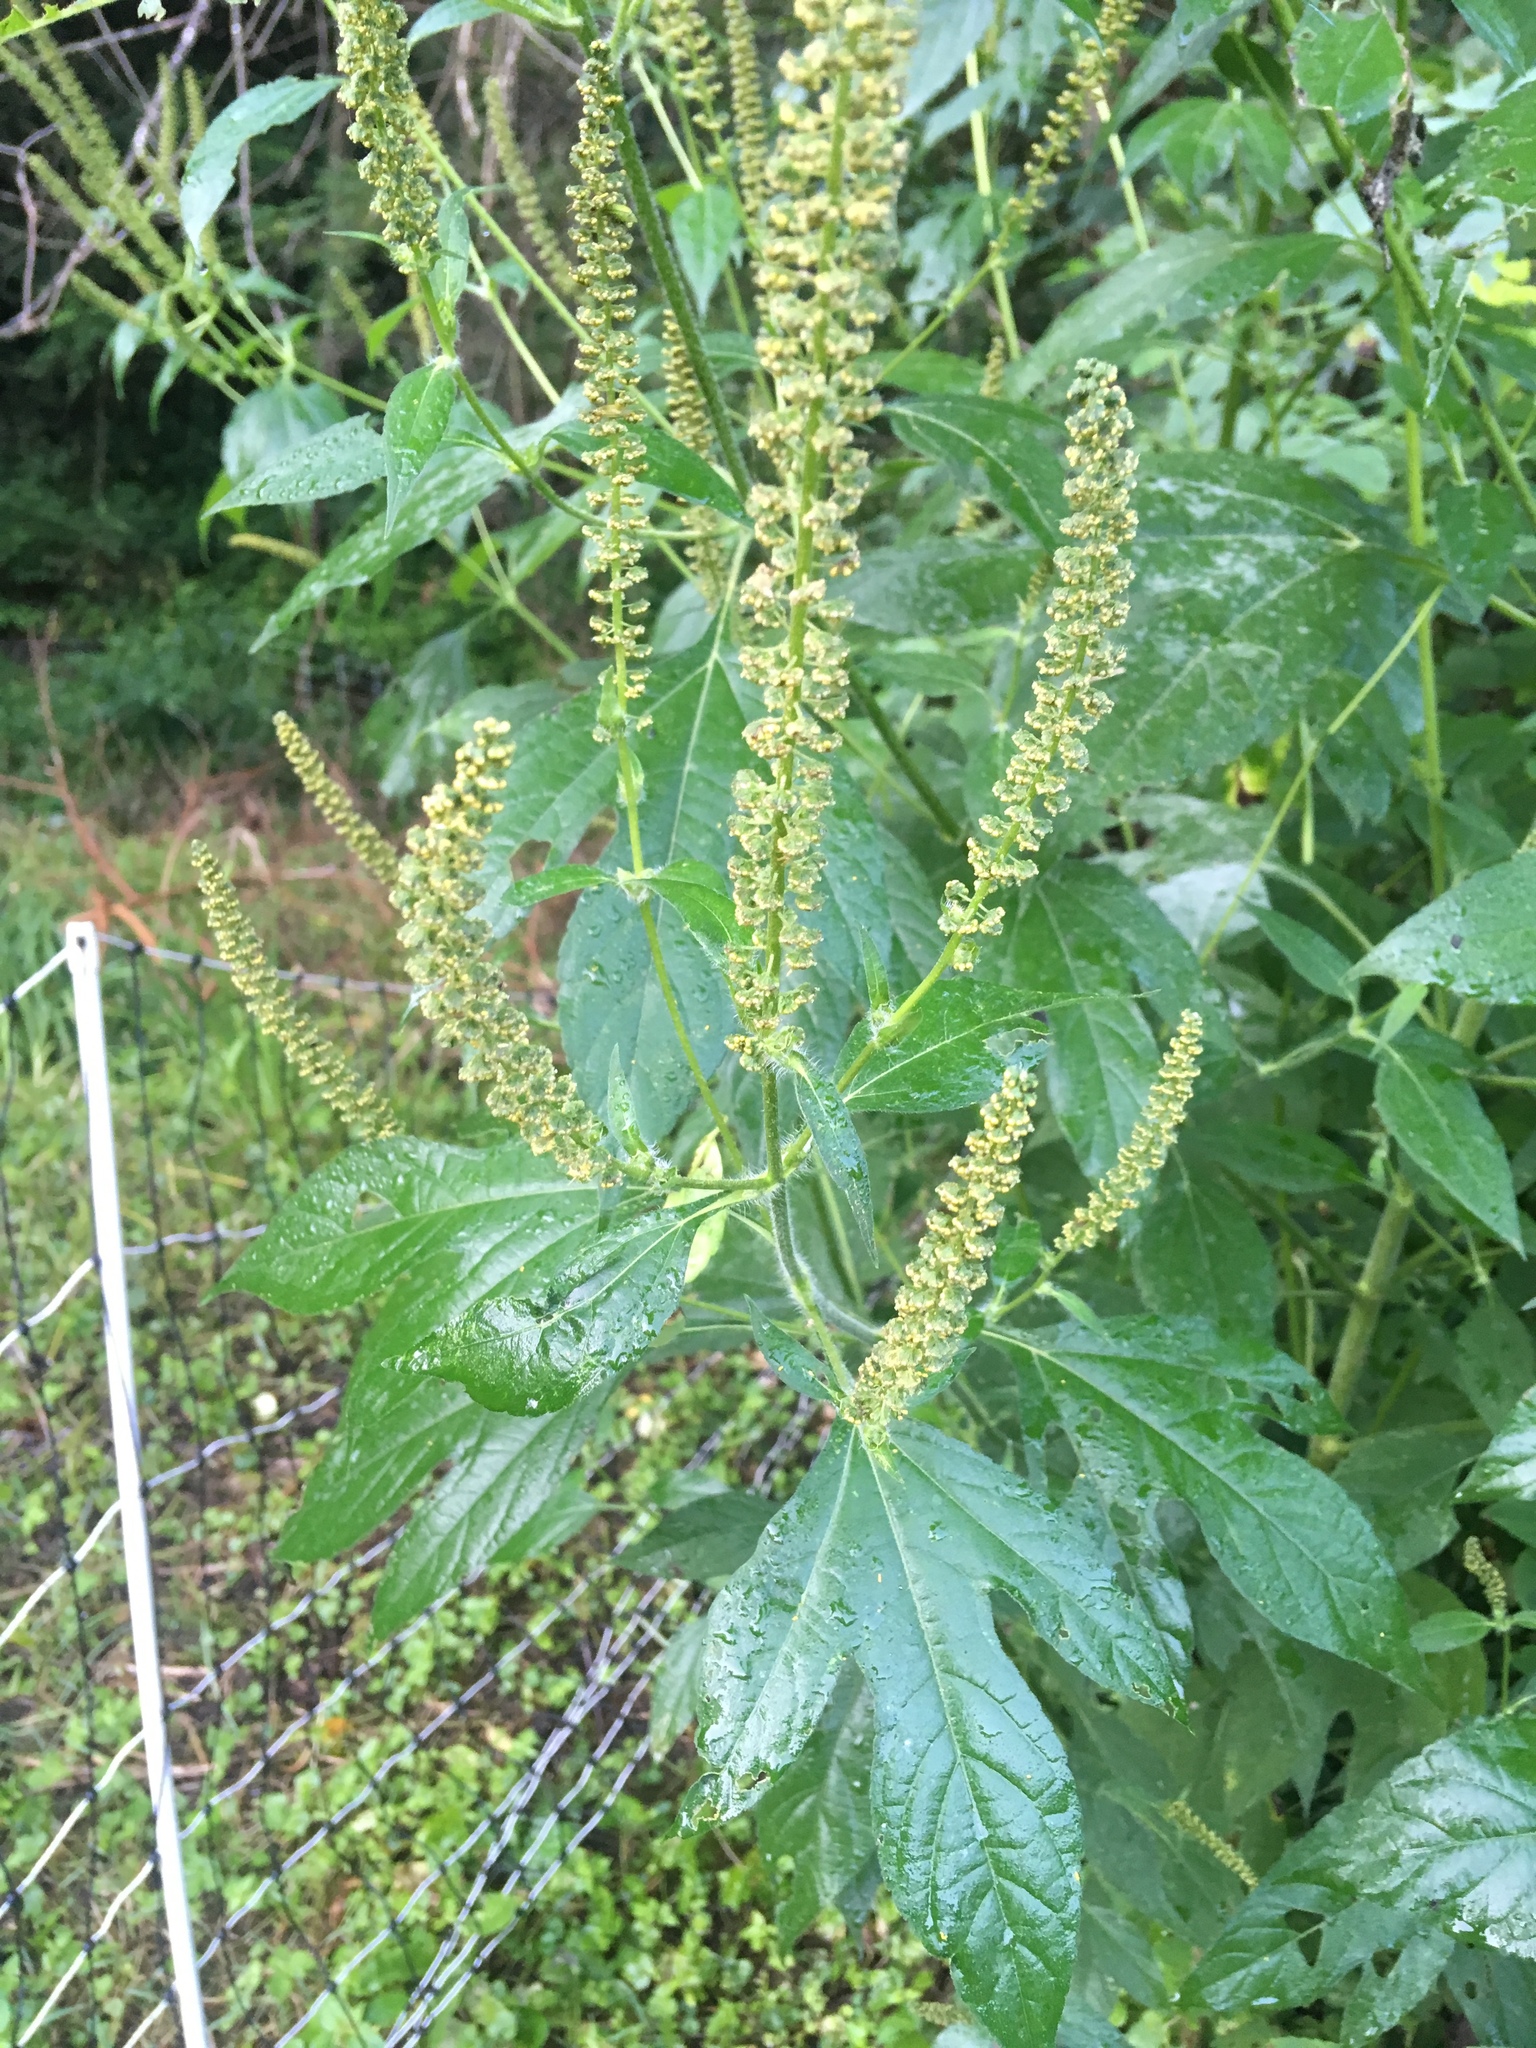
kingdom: Plantae
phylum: Tracheophyta
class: Magnoliopsida
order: Asterales
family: Asteraceae
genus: Ambrosia
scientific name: Ambrosia trifida
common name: Giant ragweed
